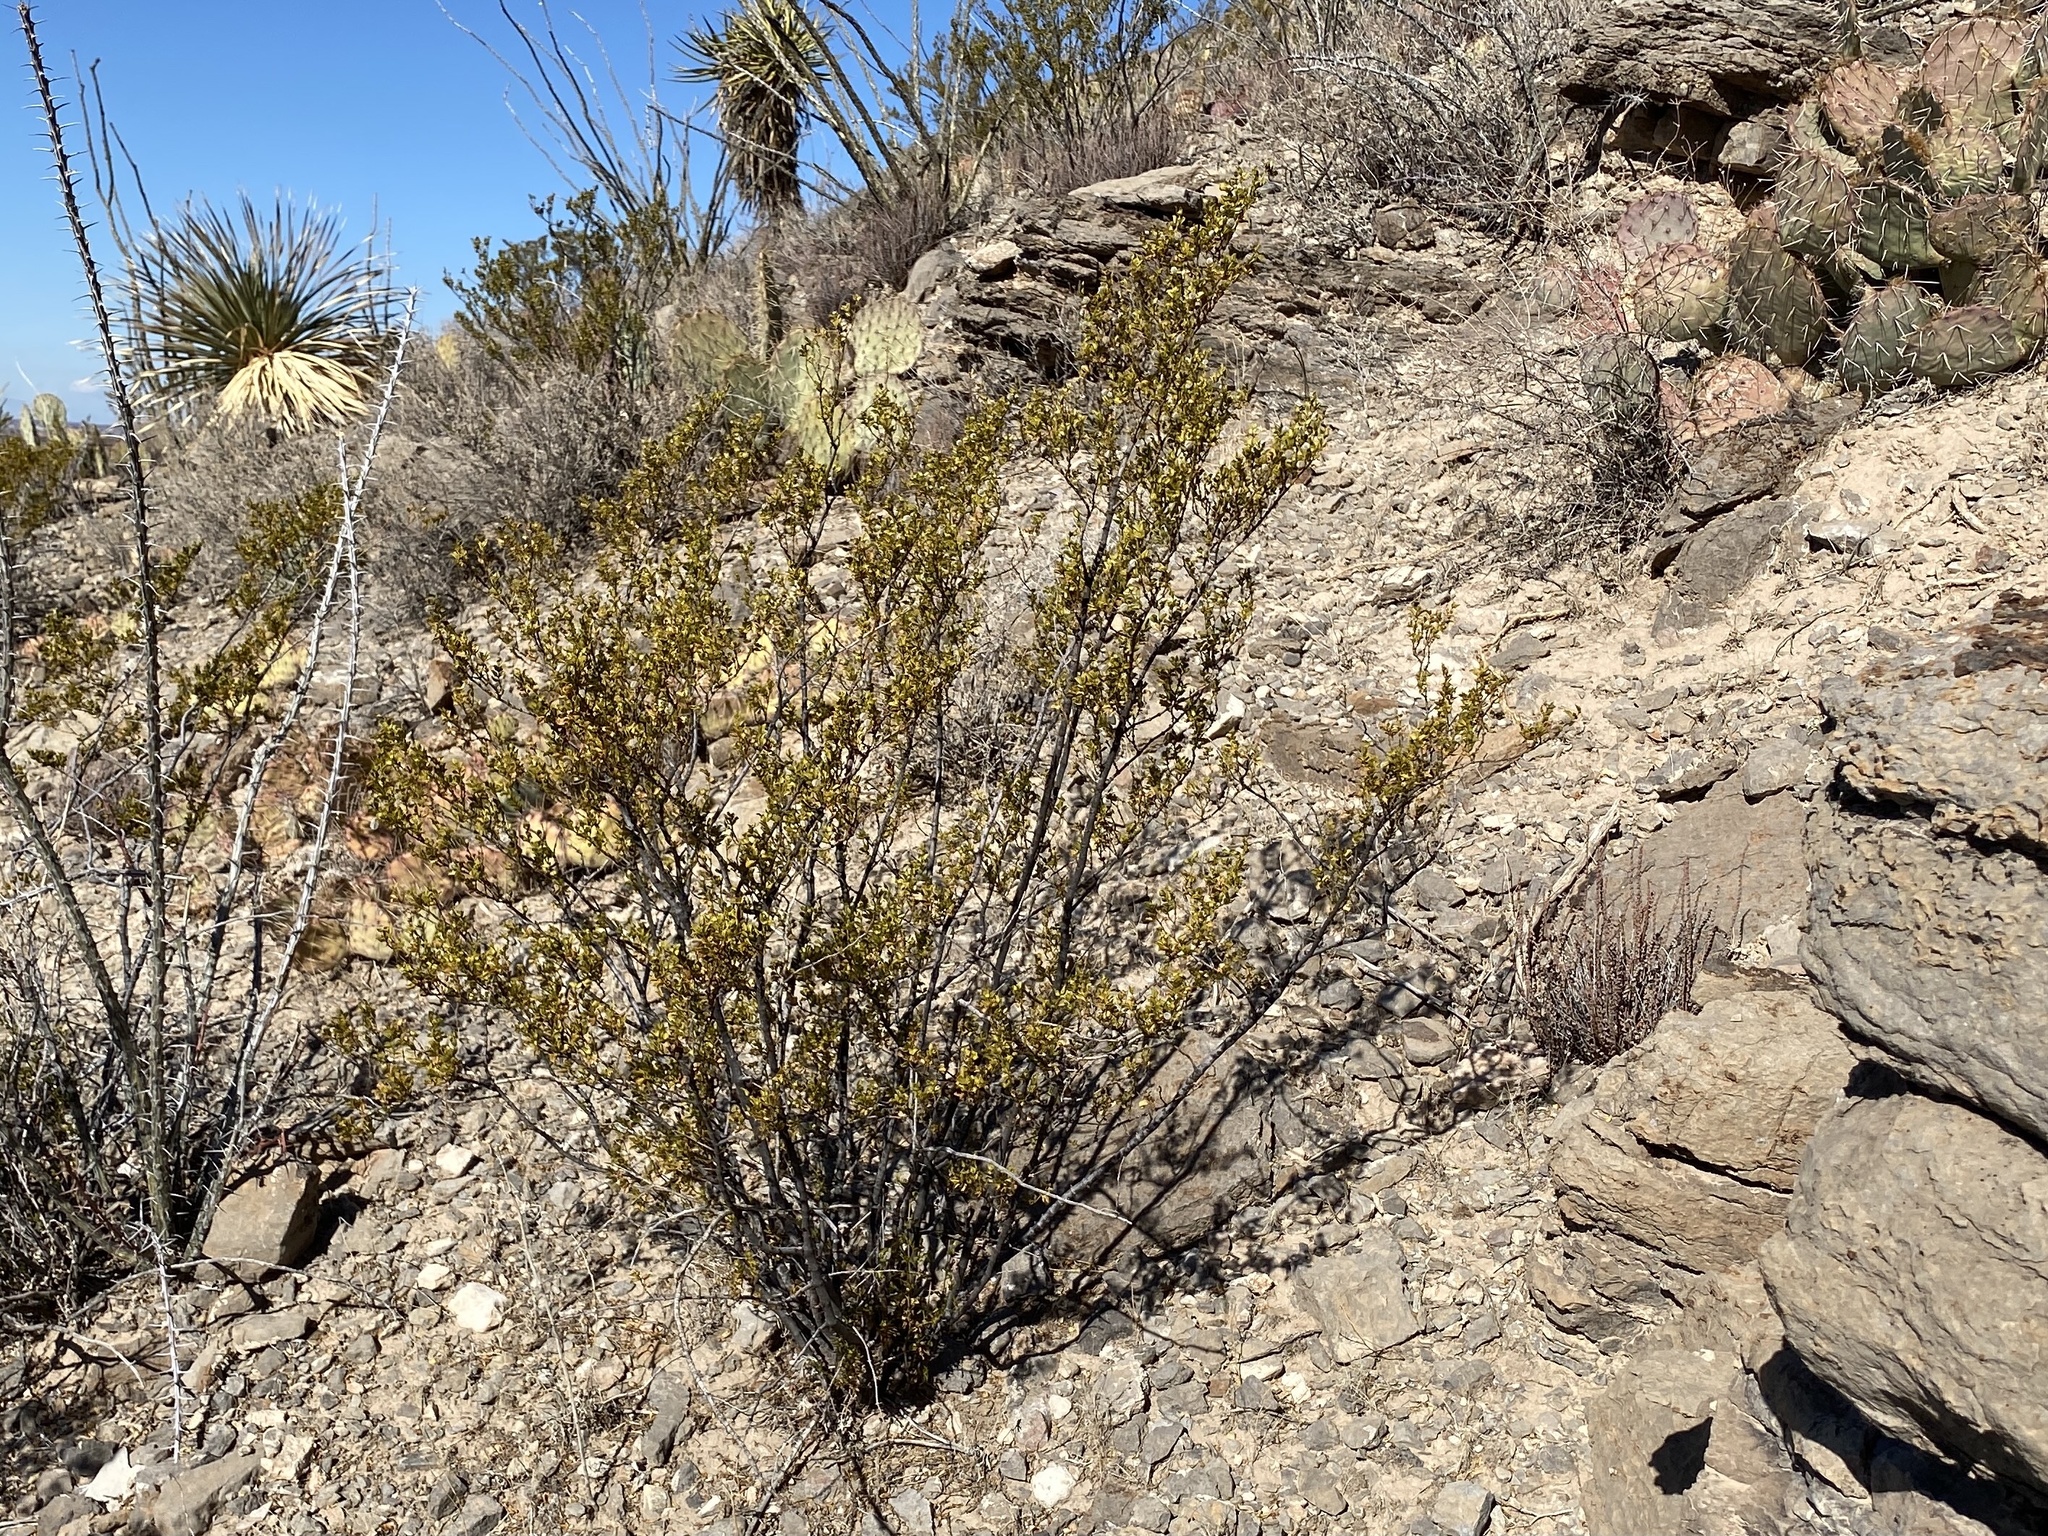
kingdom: Plantae
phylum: Tracheophyta
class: Magnoliopsida
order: Zygophyllales
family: Zygophyllaceae
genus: Larrea
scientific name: Larrea tridentata
